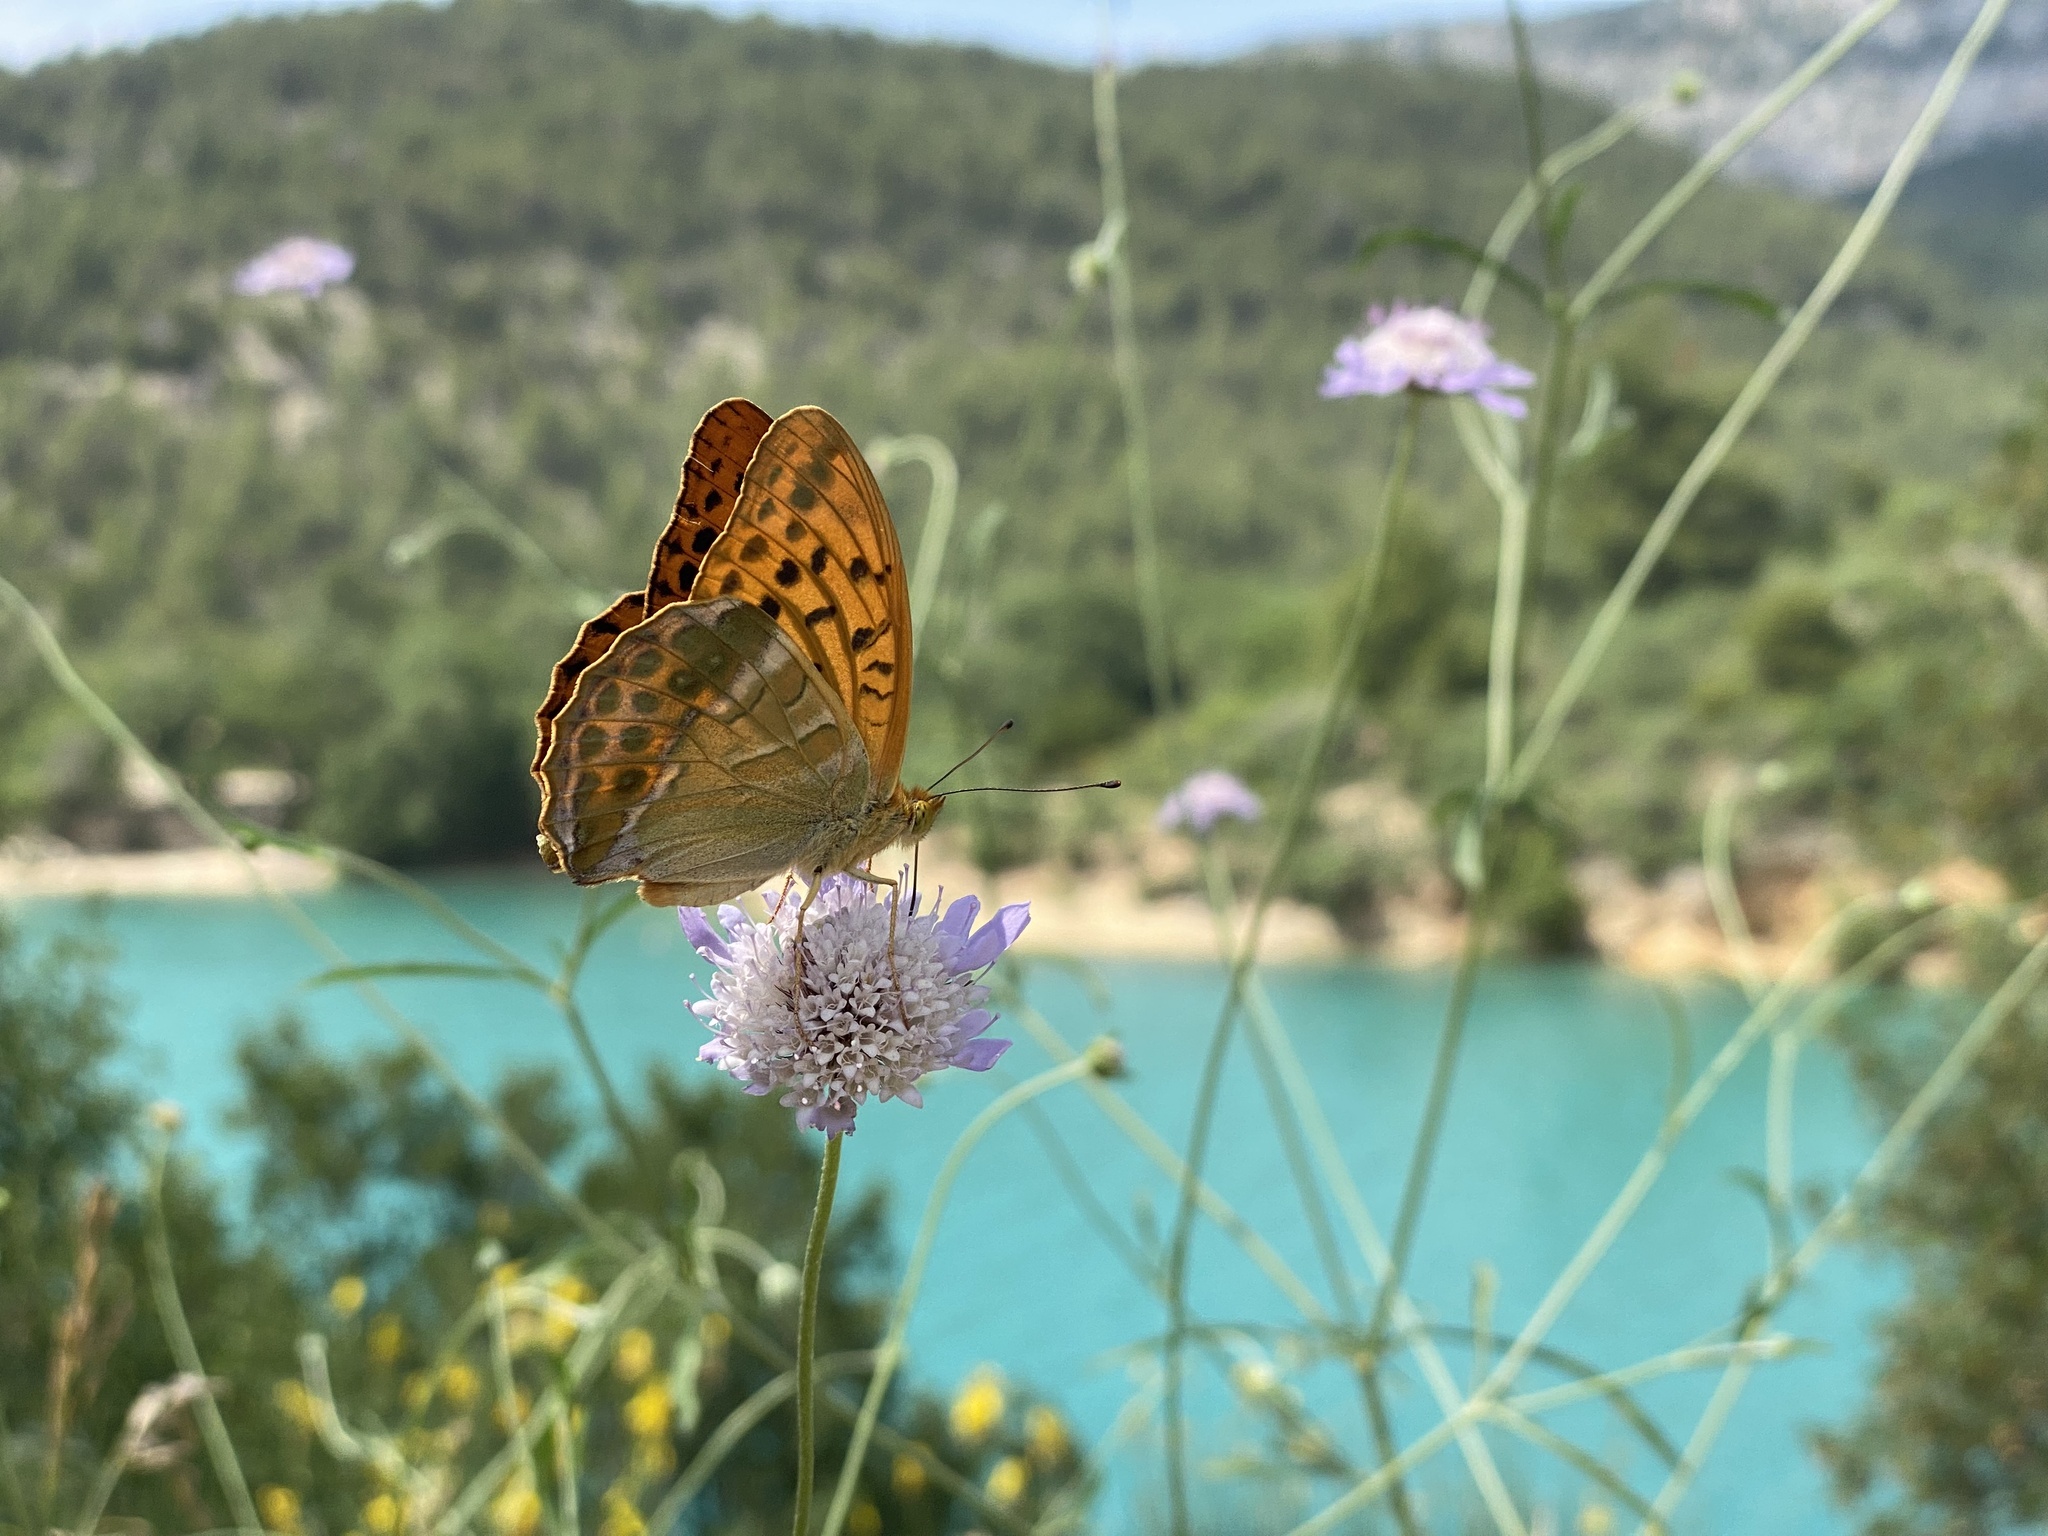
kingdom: Animalia
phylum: Arthropoda
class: Insecta
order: Lepidoptera
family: Nymphalidae
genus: Argynnis
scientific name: Argynnis paphia
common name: Silver-washed fritillary
